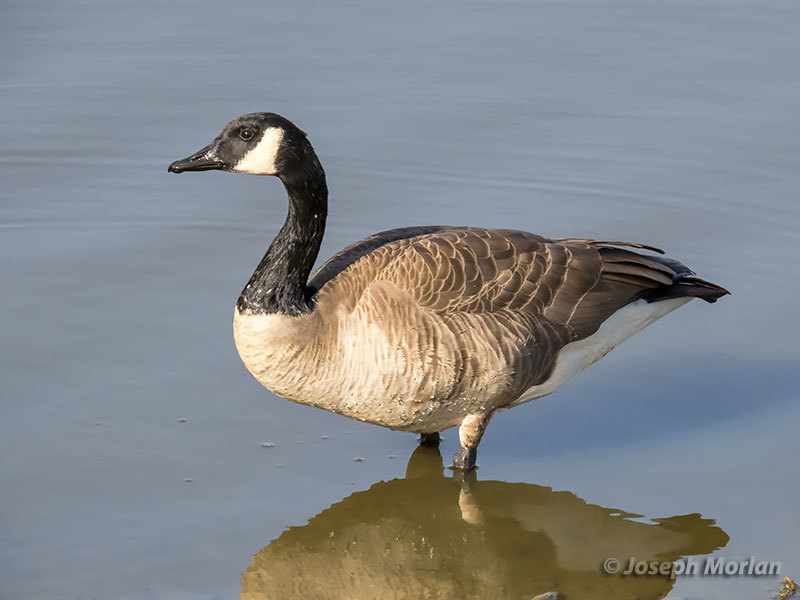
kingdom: Animalia
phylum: Chordata
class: Aves
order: Anseriformes
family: Anatidae
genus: Branta
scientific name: Branta canadensis
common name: Canada goose
